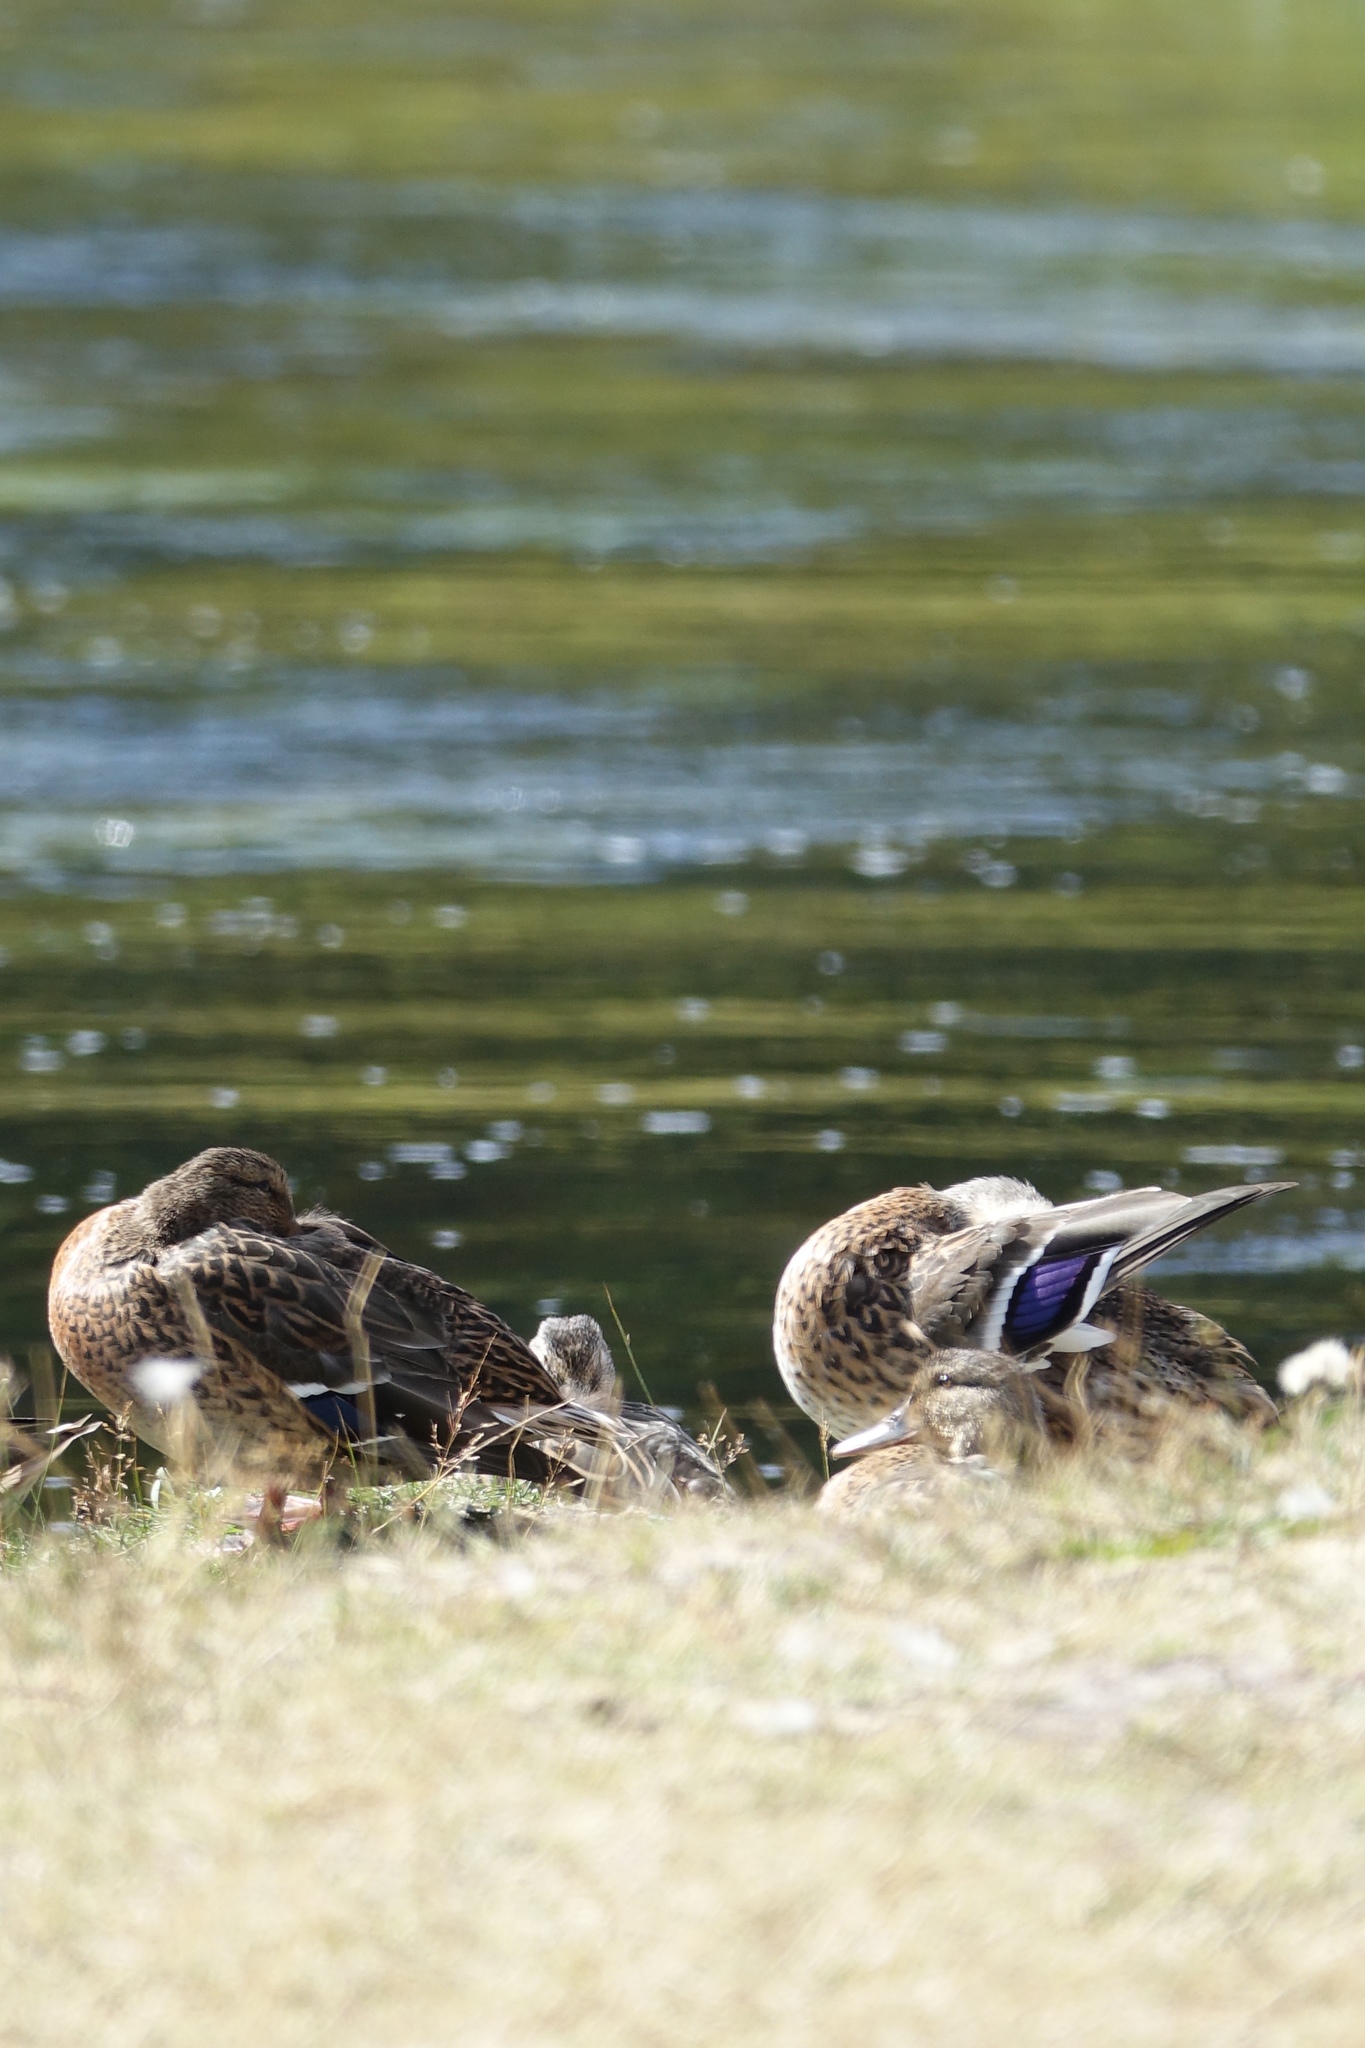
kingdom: Animalia
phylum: Chordata
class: Aves
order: Anseriformes
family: Anatidae
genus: Anas
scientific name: Anas platyrhynchos
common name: Mallard
